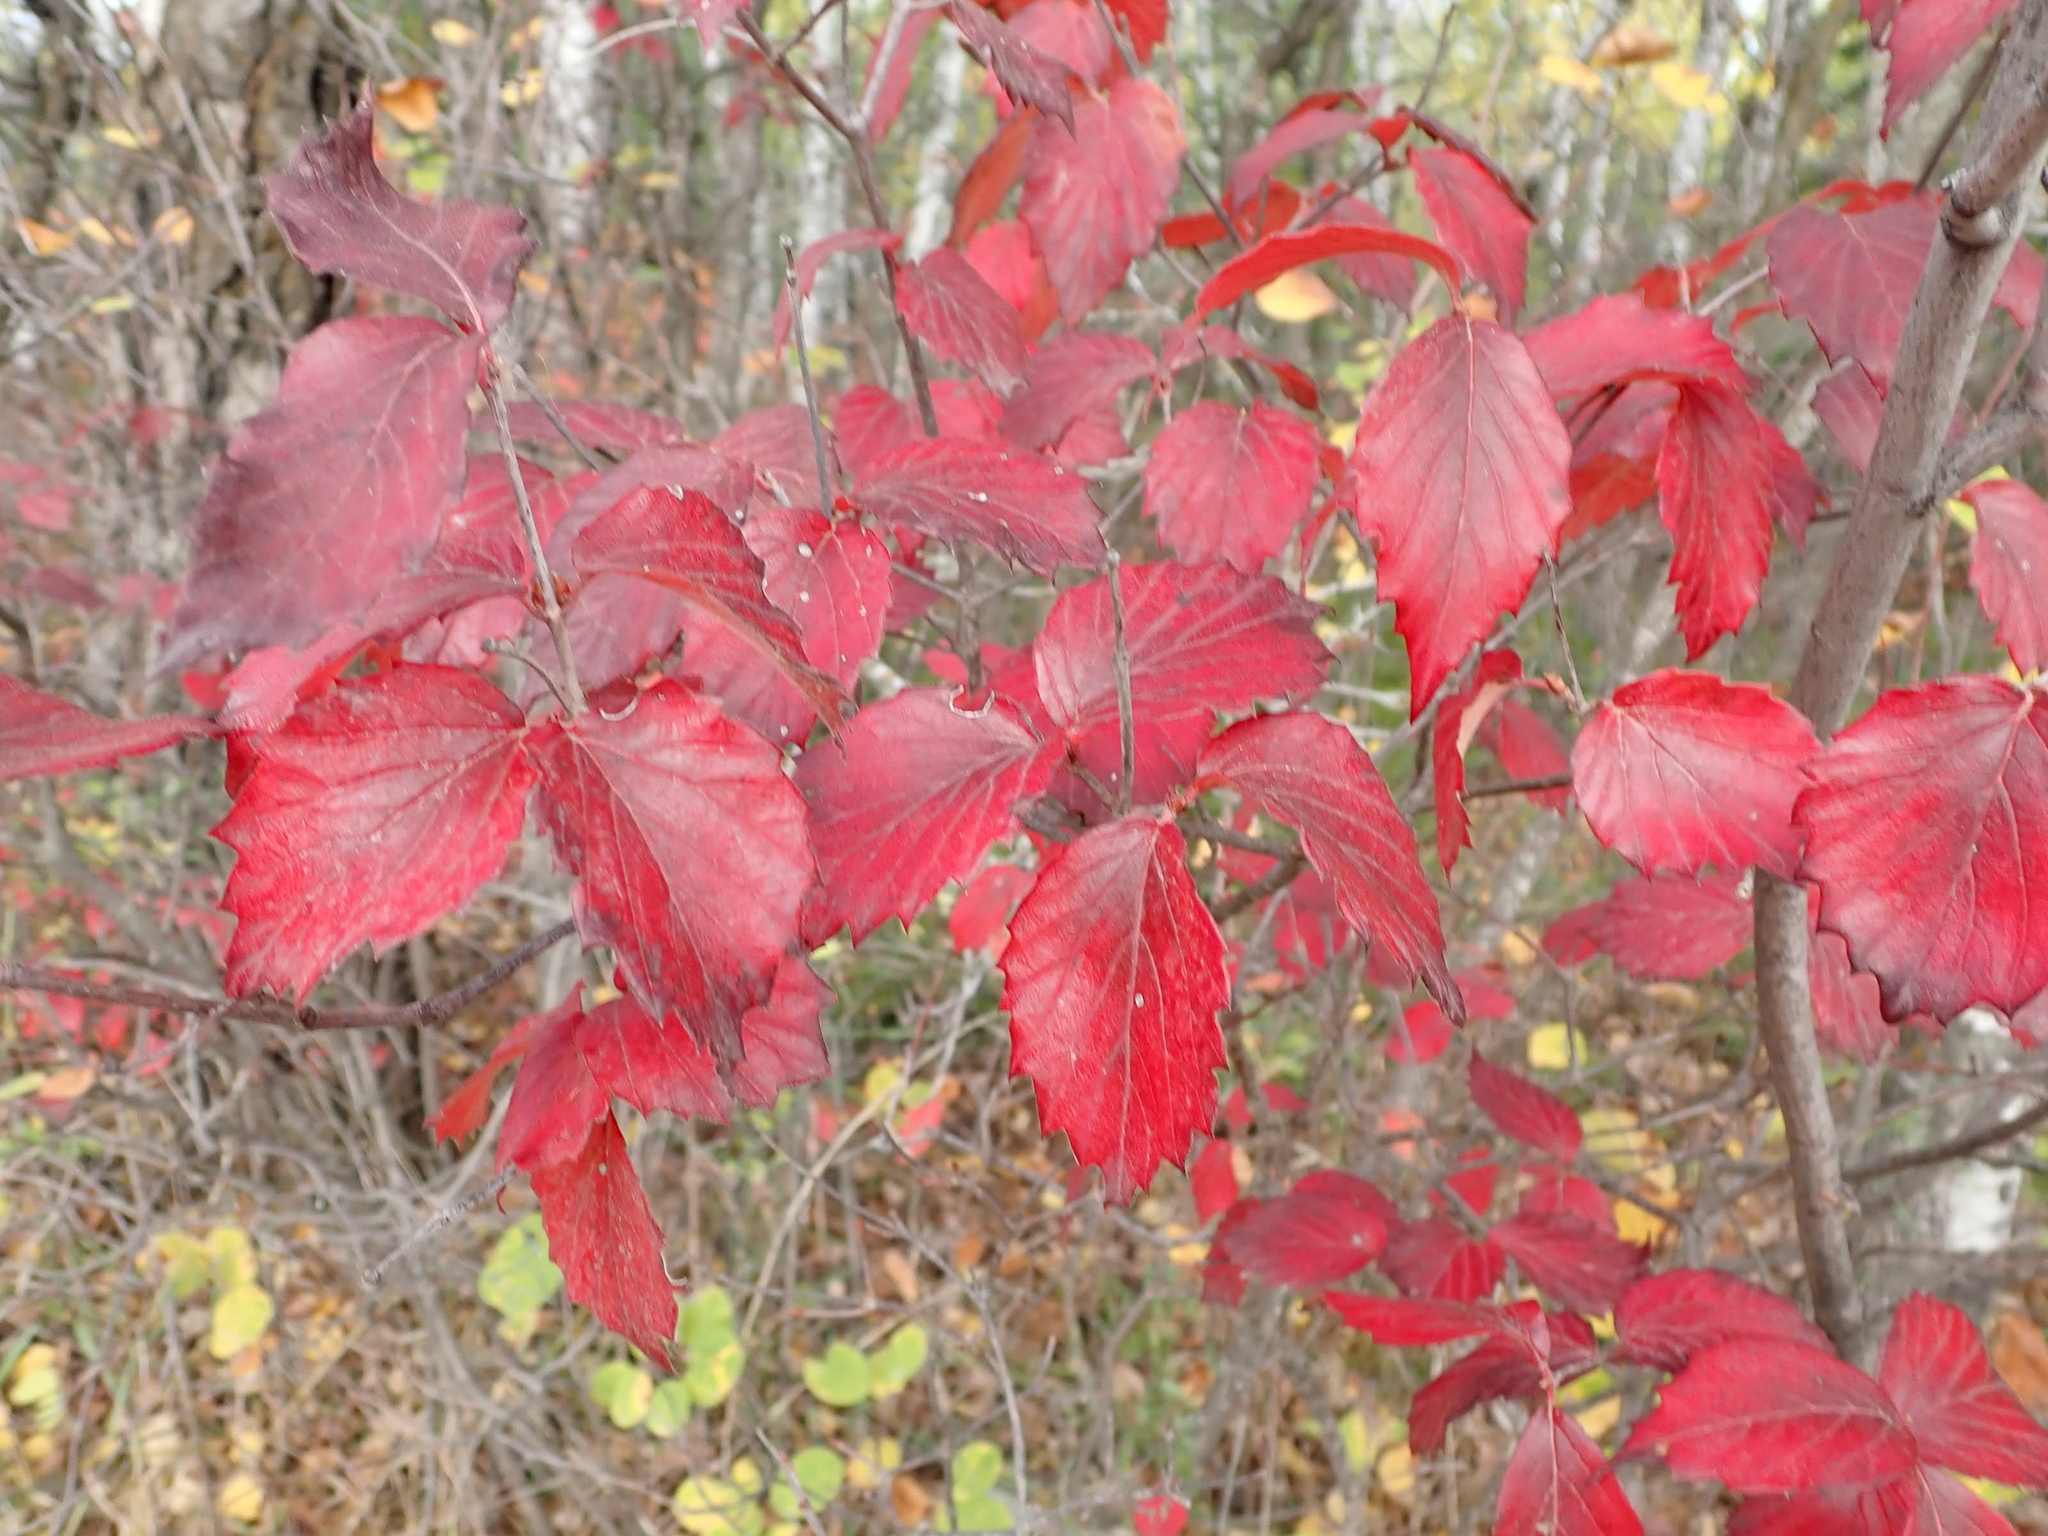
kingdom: Plantae
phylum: Tracheophyta
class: Magnoliopsida
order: Dipsacales
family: Viburnaceae
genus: Viburnum
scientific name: Viburnum rafinesqueanum
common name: Downy arrow-wood
